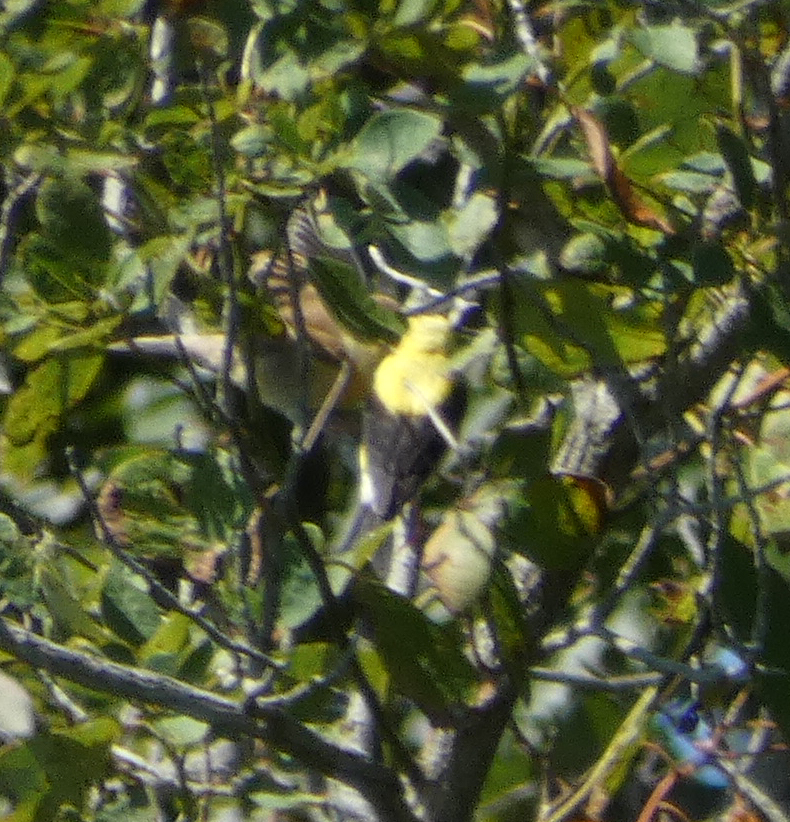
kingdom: Animalia
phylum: Chordata
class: Aves
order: Passeriformes
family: Fringillidae
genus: Spinus
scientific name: Spinus tristis
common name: American goldfinch
